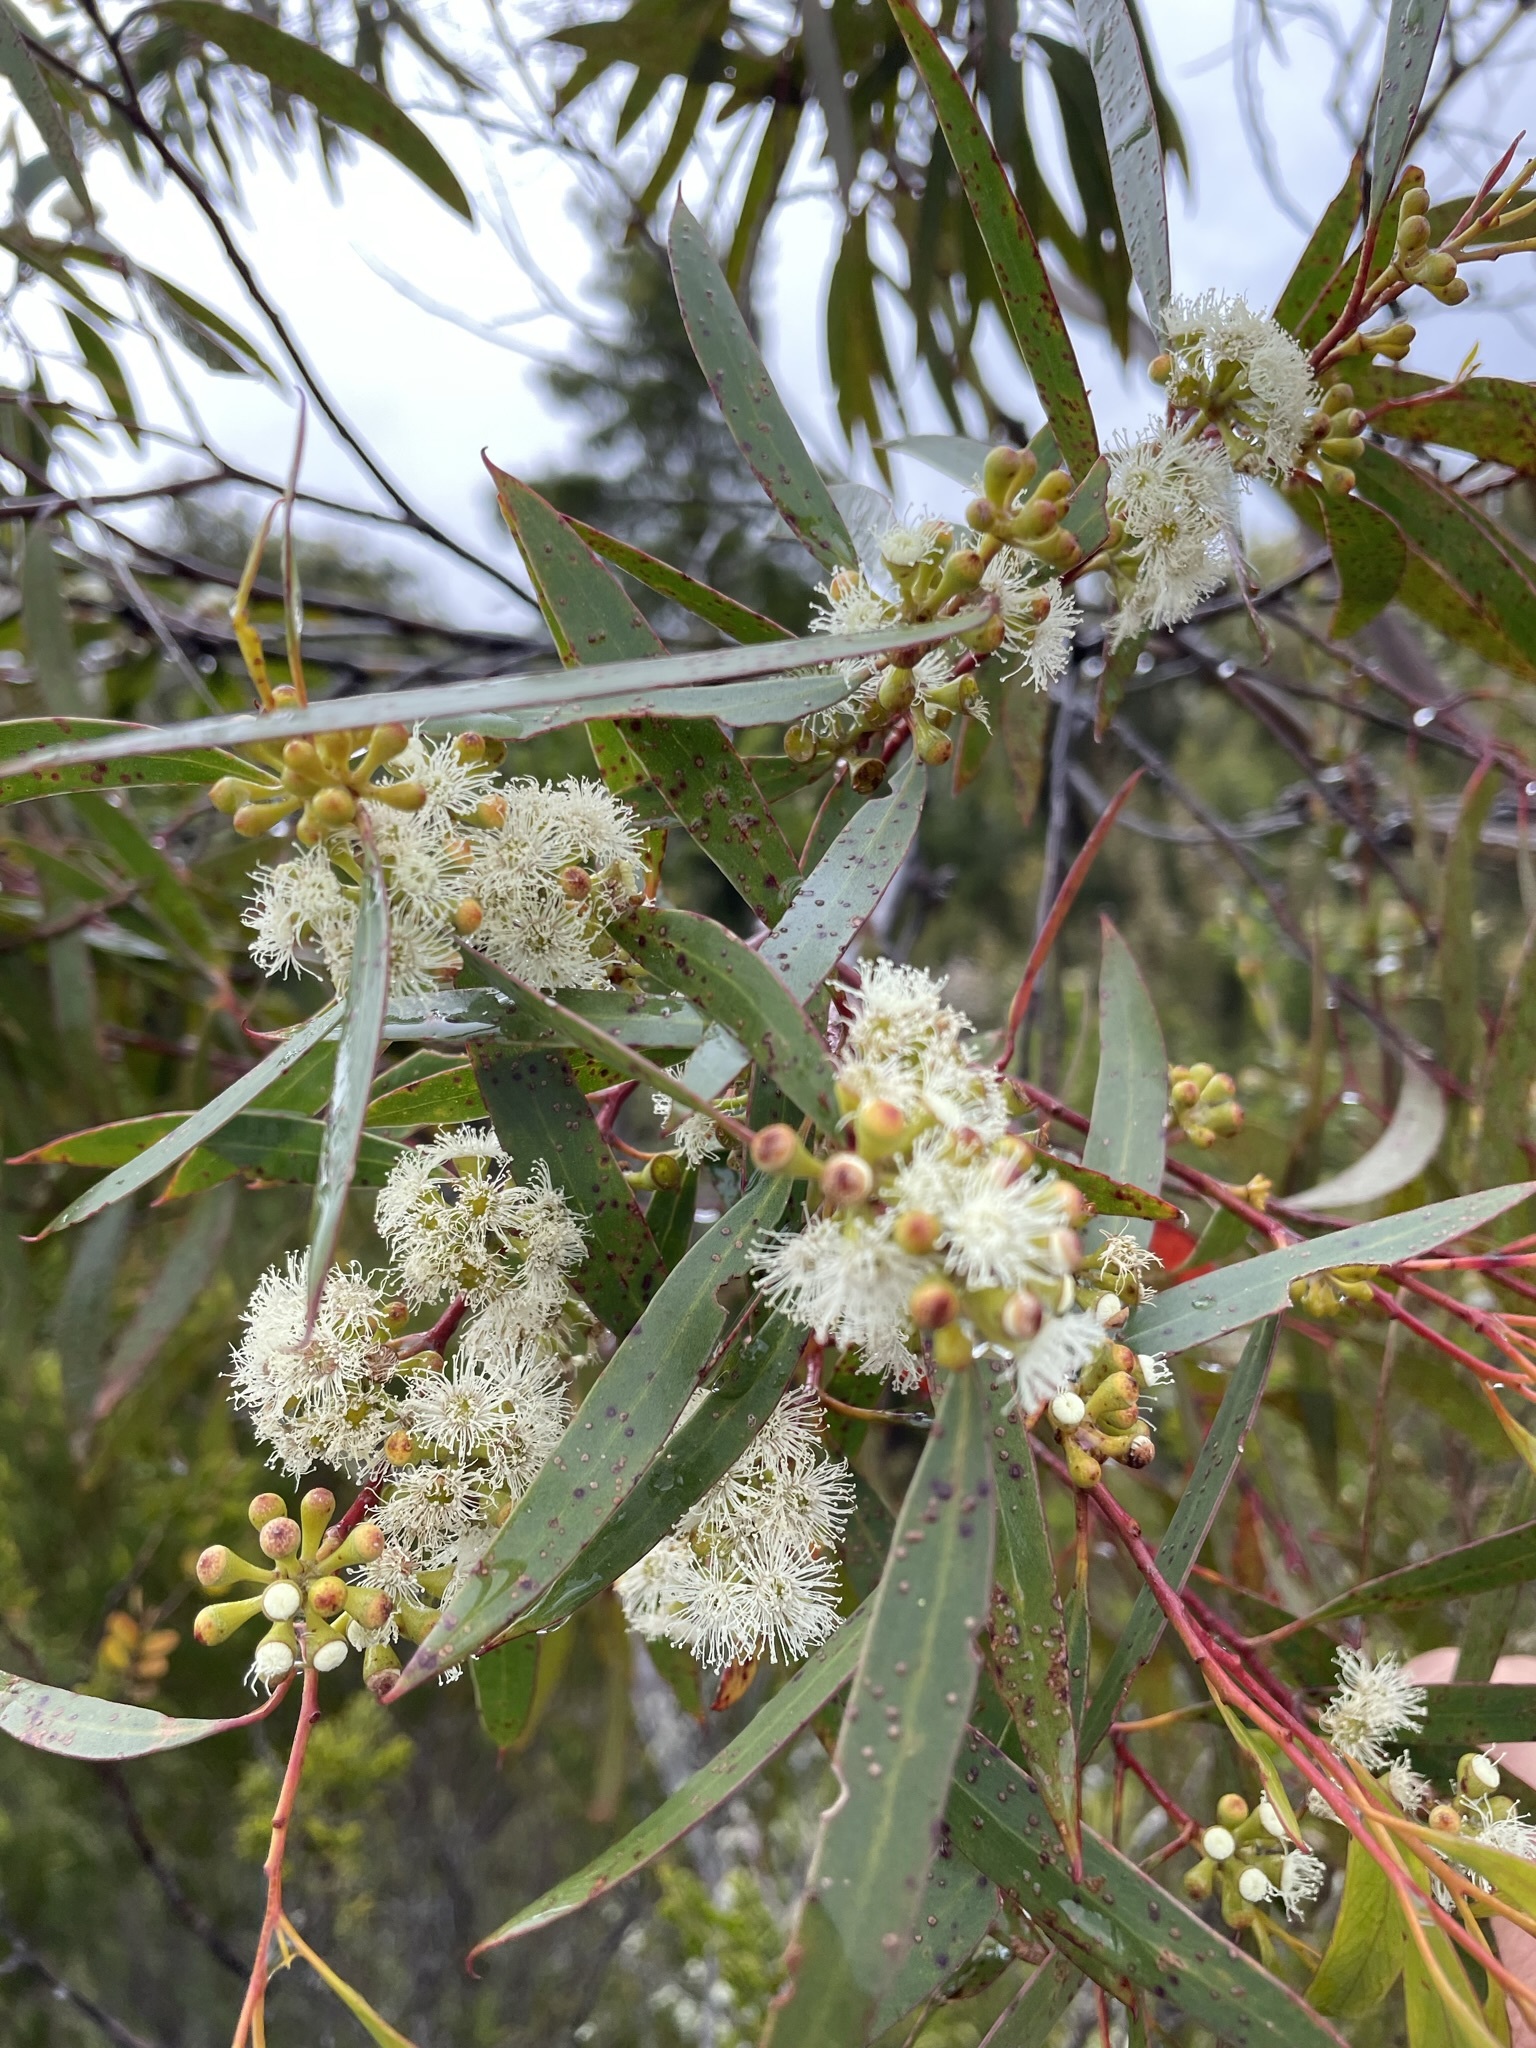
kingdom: Plantae
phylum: Tracheophyta
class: Magnoliopsida
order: Myrtales
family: Myrtaceae
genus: Eucalyptus
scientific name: Eucalyptus nitida
